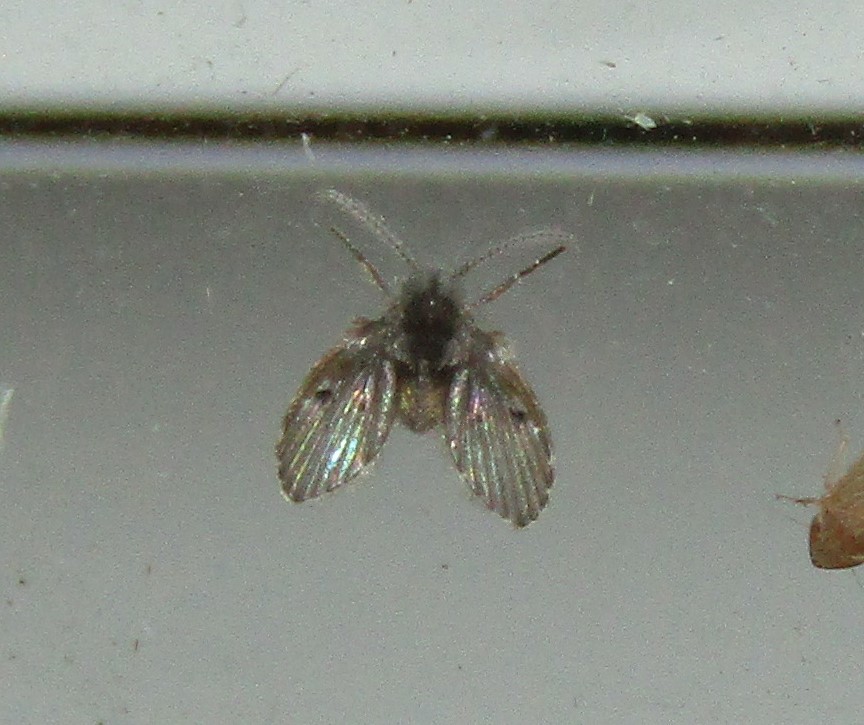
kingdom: Animalia
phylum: Arthropoda
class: Insecta
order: Diptera
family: Psychodidae
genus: Clogmia
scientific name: Clogmia albipunctatus
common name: White-spotted moth fly
